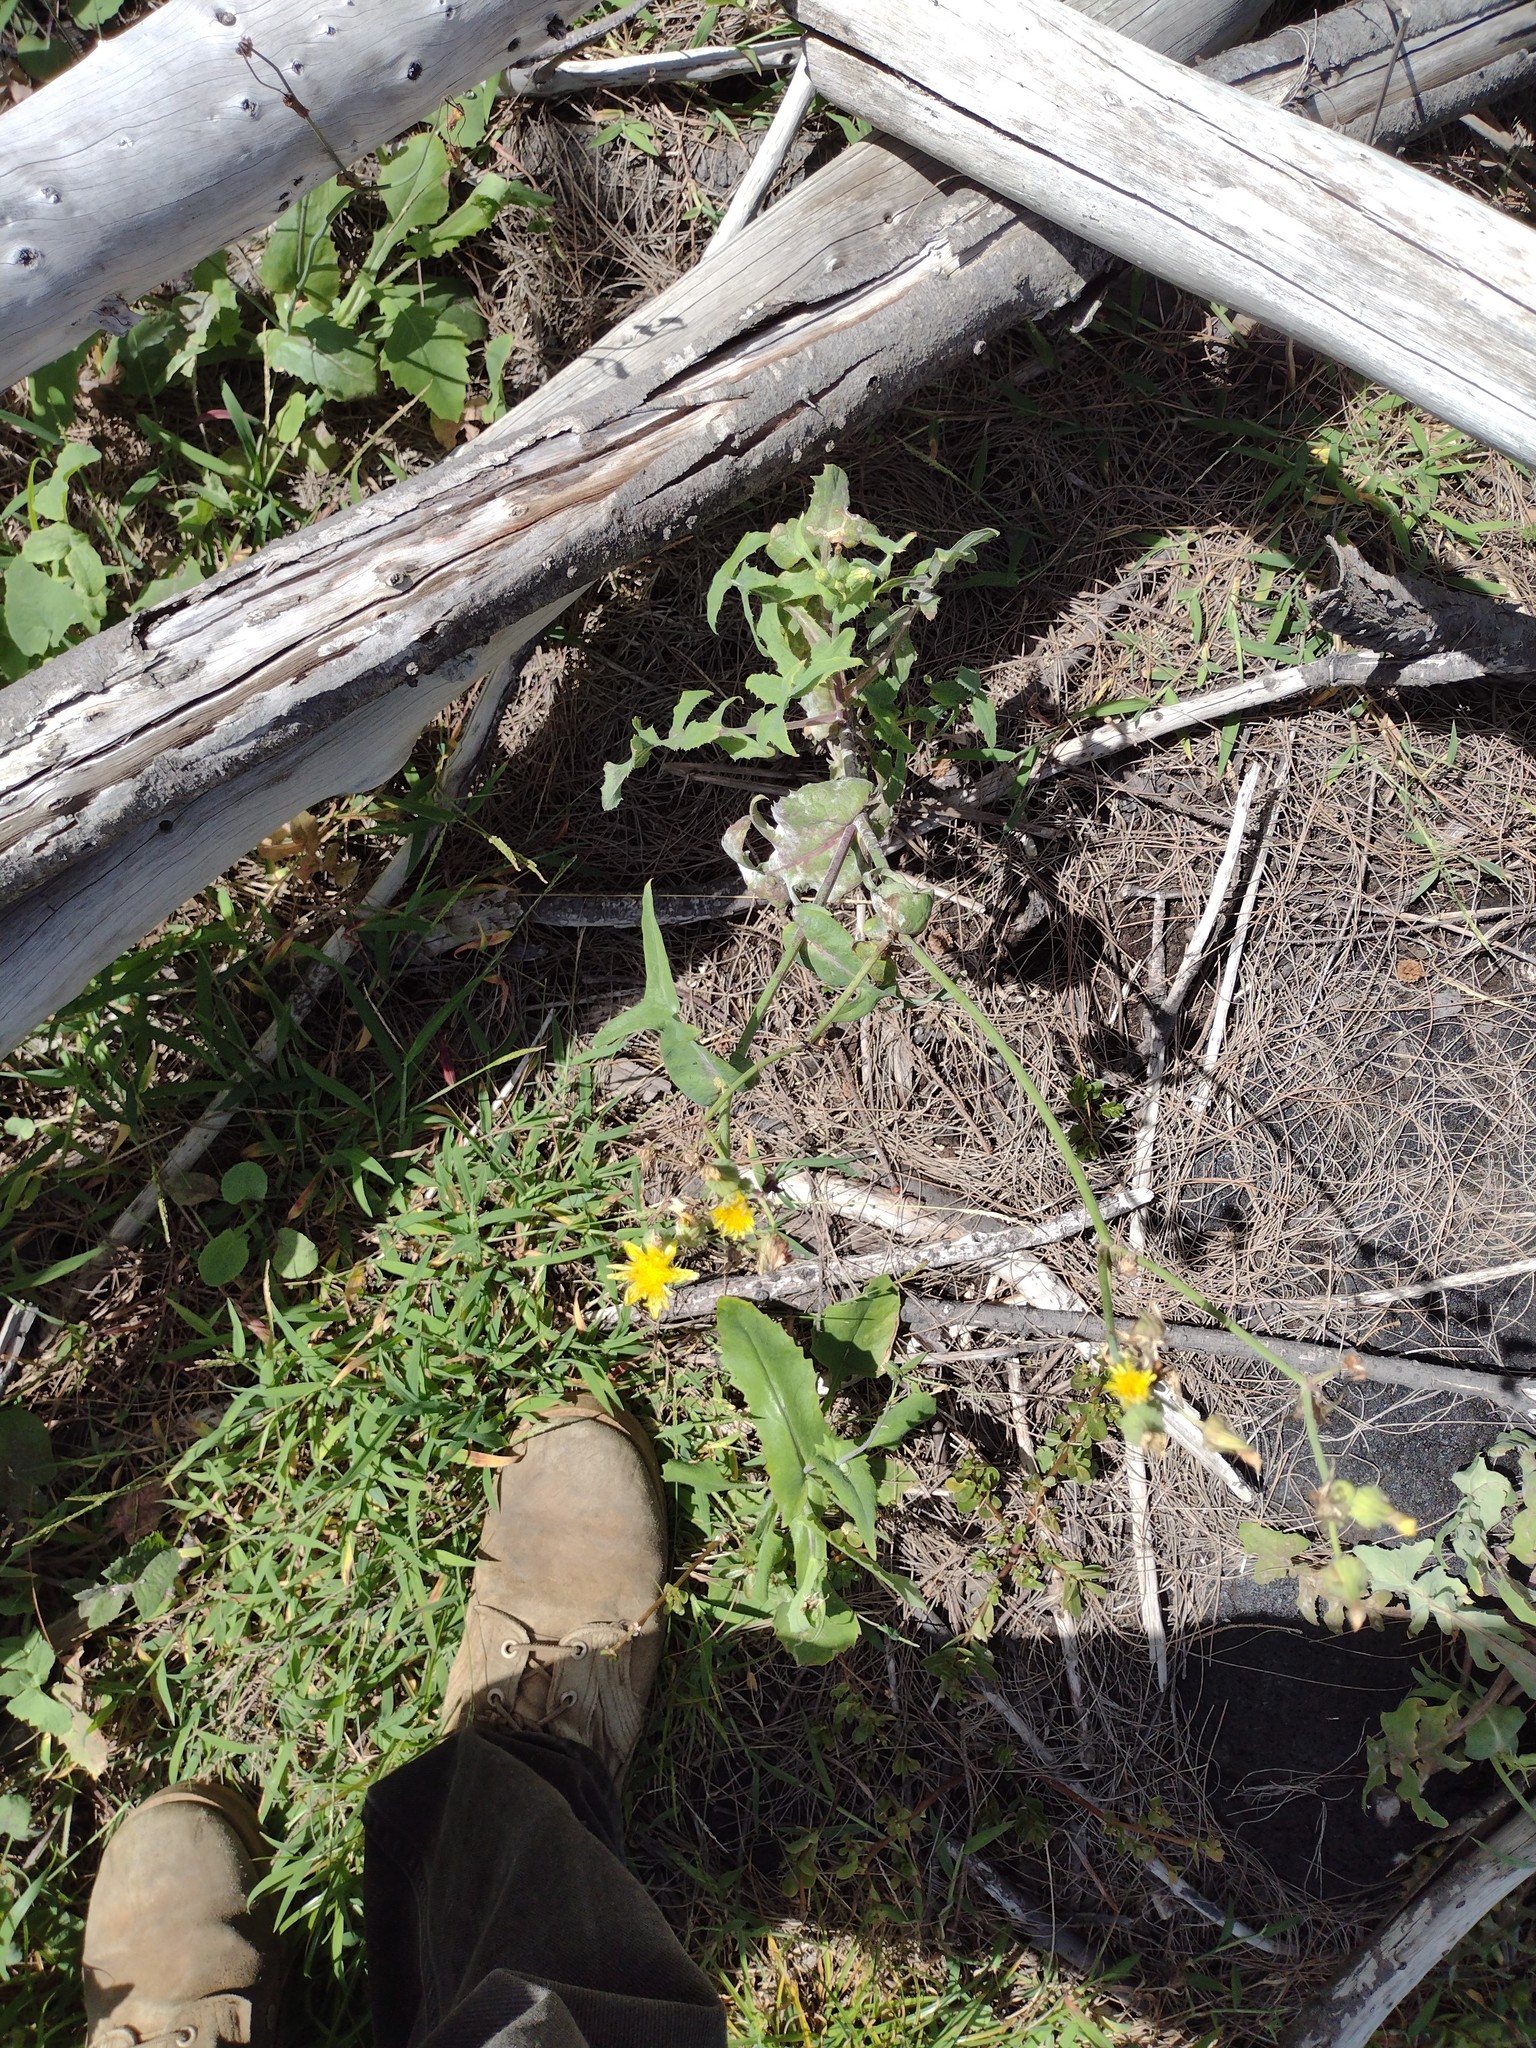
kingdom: Plantae
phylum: Tracheophyta
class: Magnoliopsida
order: Asterales
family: Asteraceae
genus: Sonchus
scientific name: Sonchus oleraceus
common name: Common sowthistle
